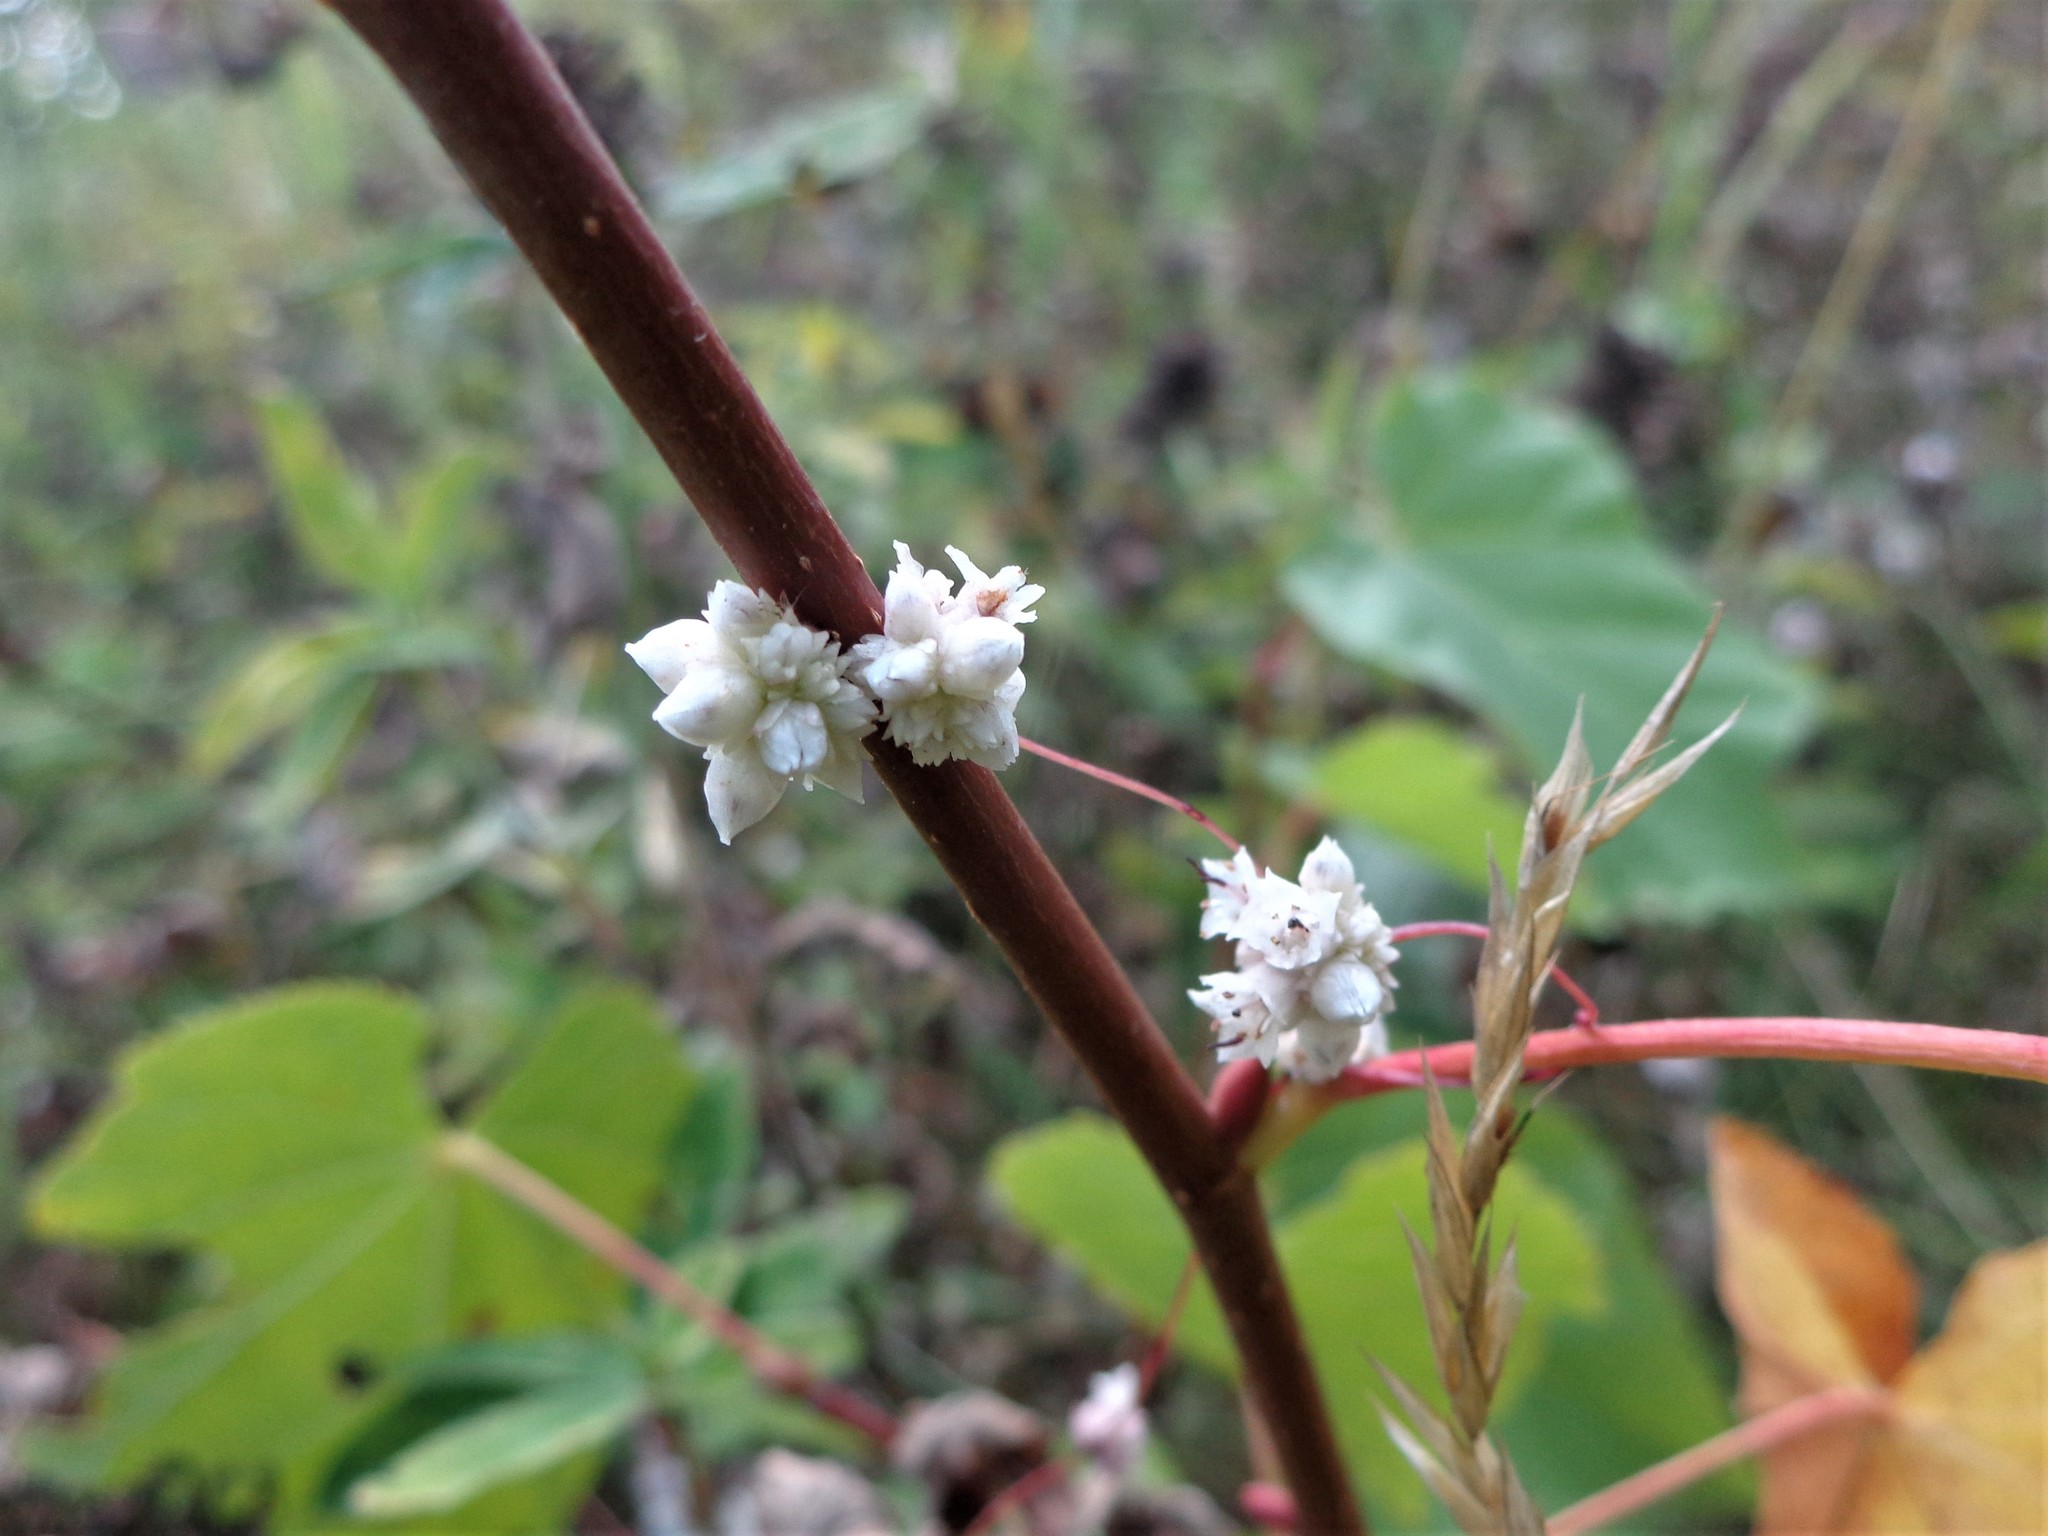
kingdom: Plantae
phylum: Tracheophyta
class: Magnoliopsida
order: Solanales
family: Convolvulaceae
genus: Cuscuta
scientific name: Cuscuta epithymum
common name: Clover dodder
